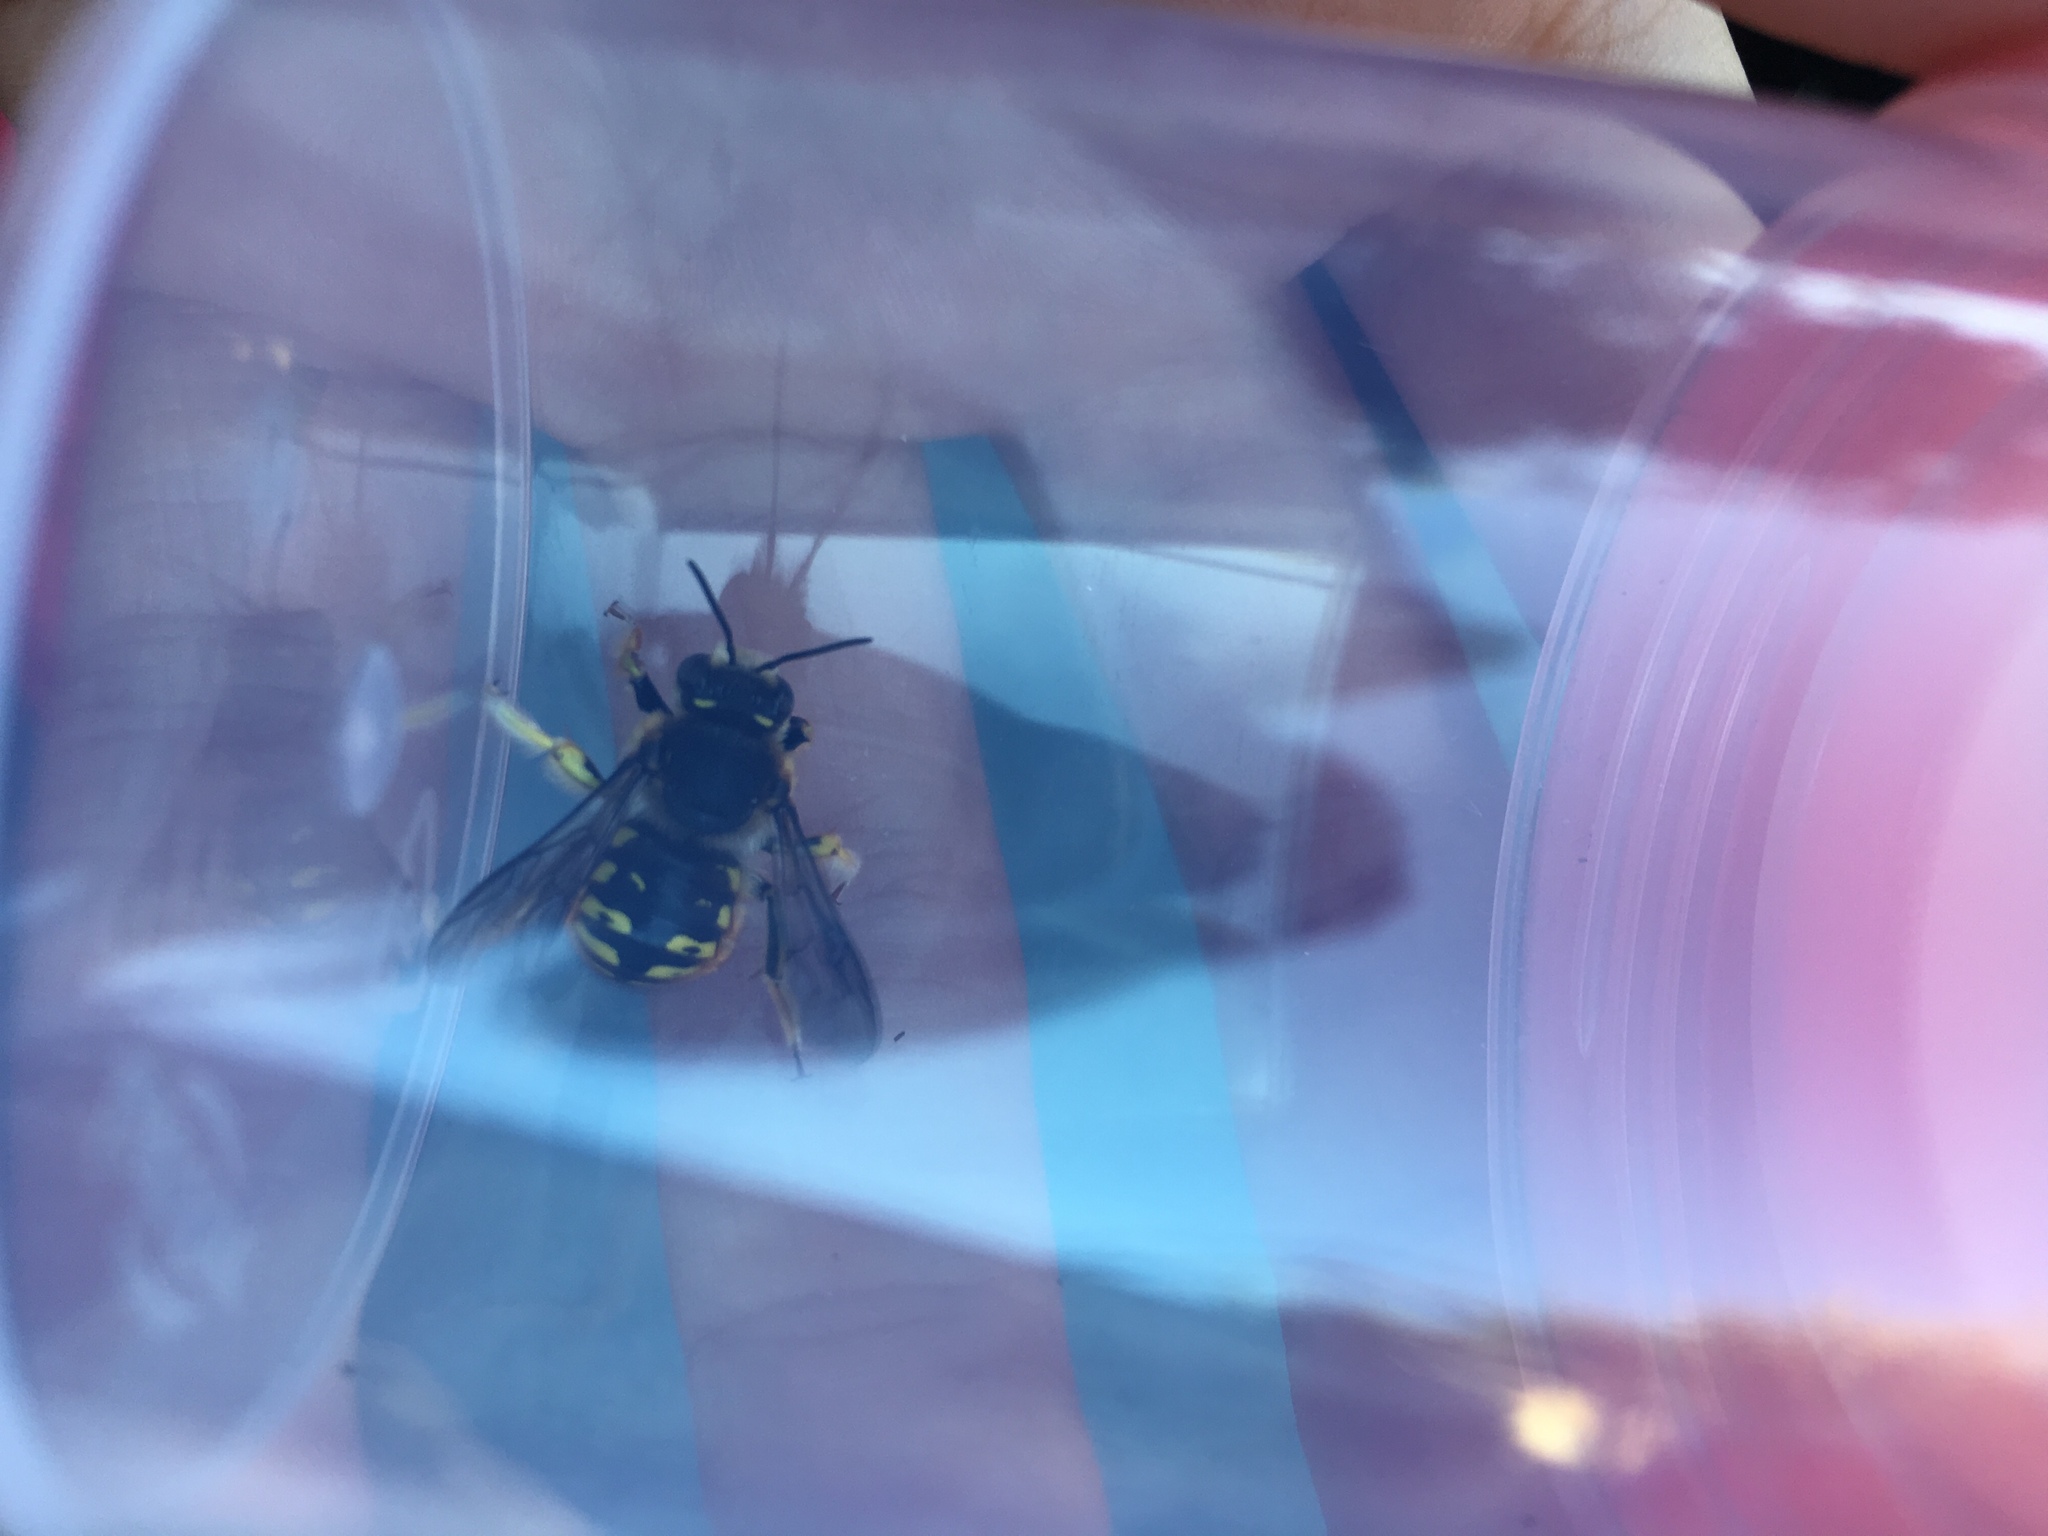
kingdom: Animalia
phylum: Arthropoda
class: Insecta
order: Hymenoptera
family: Megachilidae
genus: Anthidium
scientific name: Anthidium manicatum
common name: Wool carder bee
